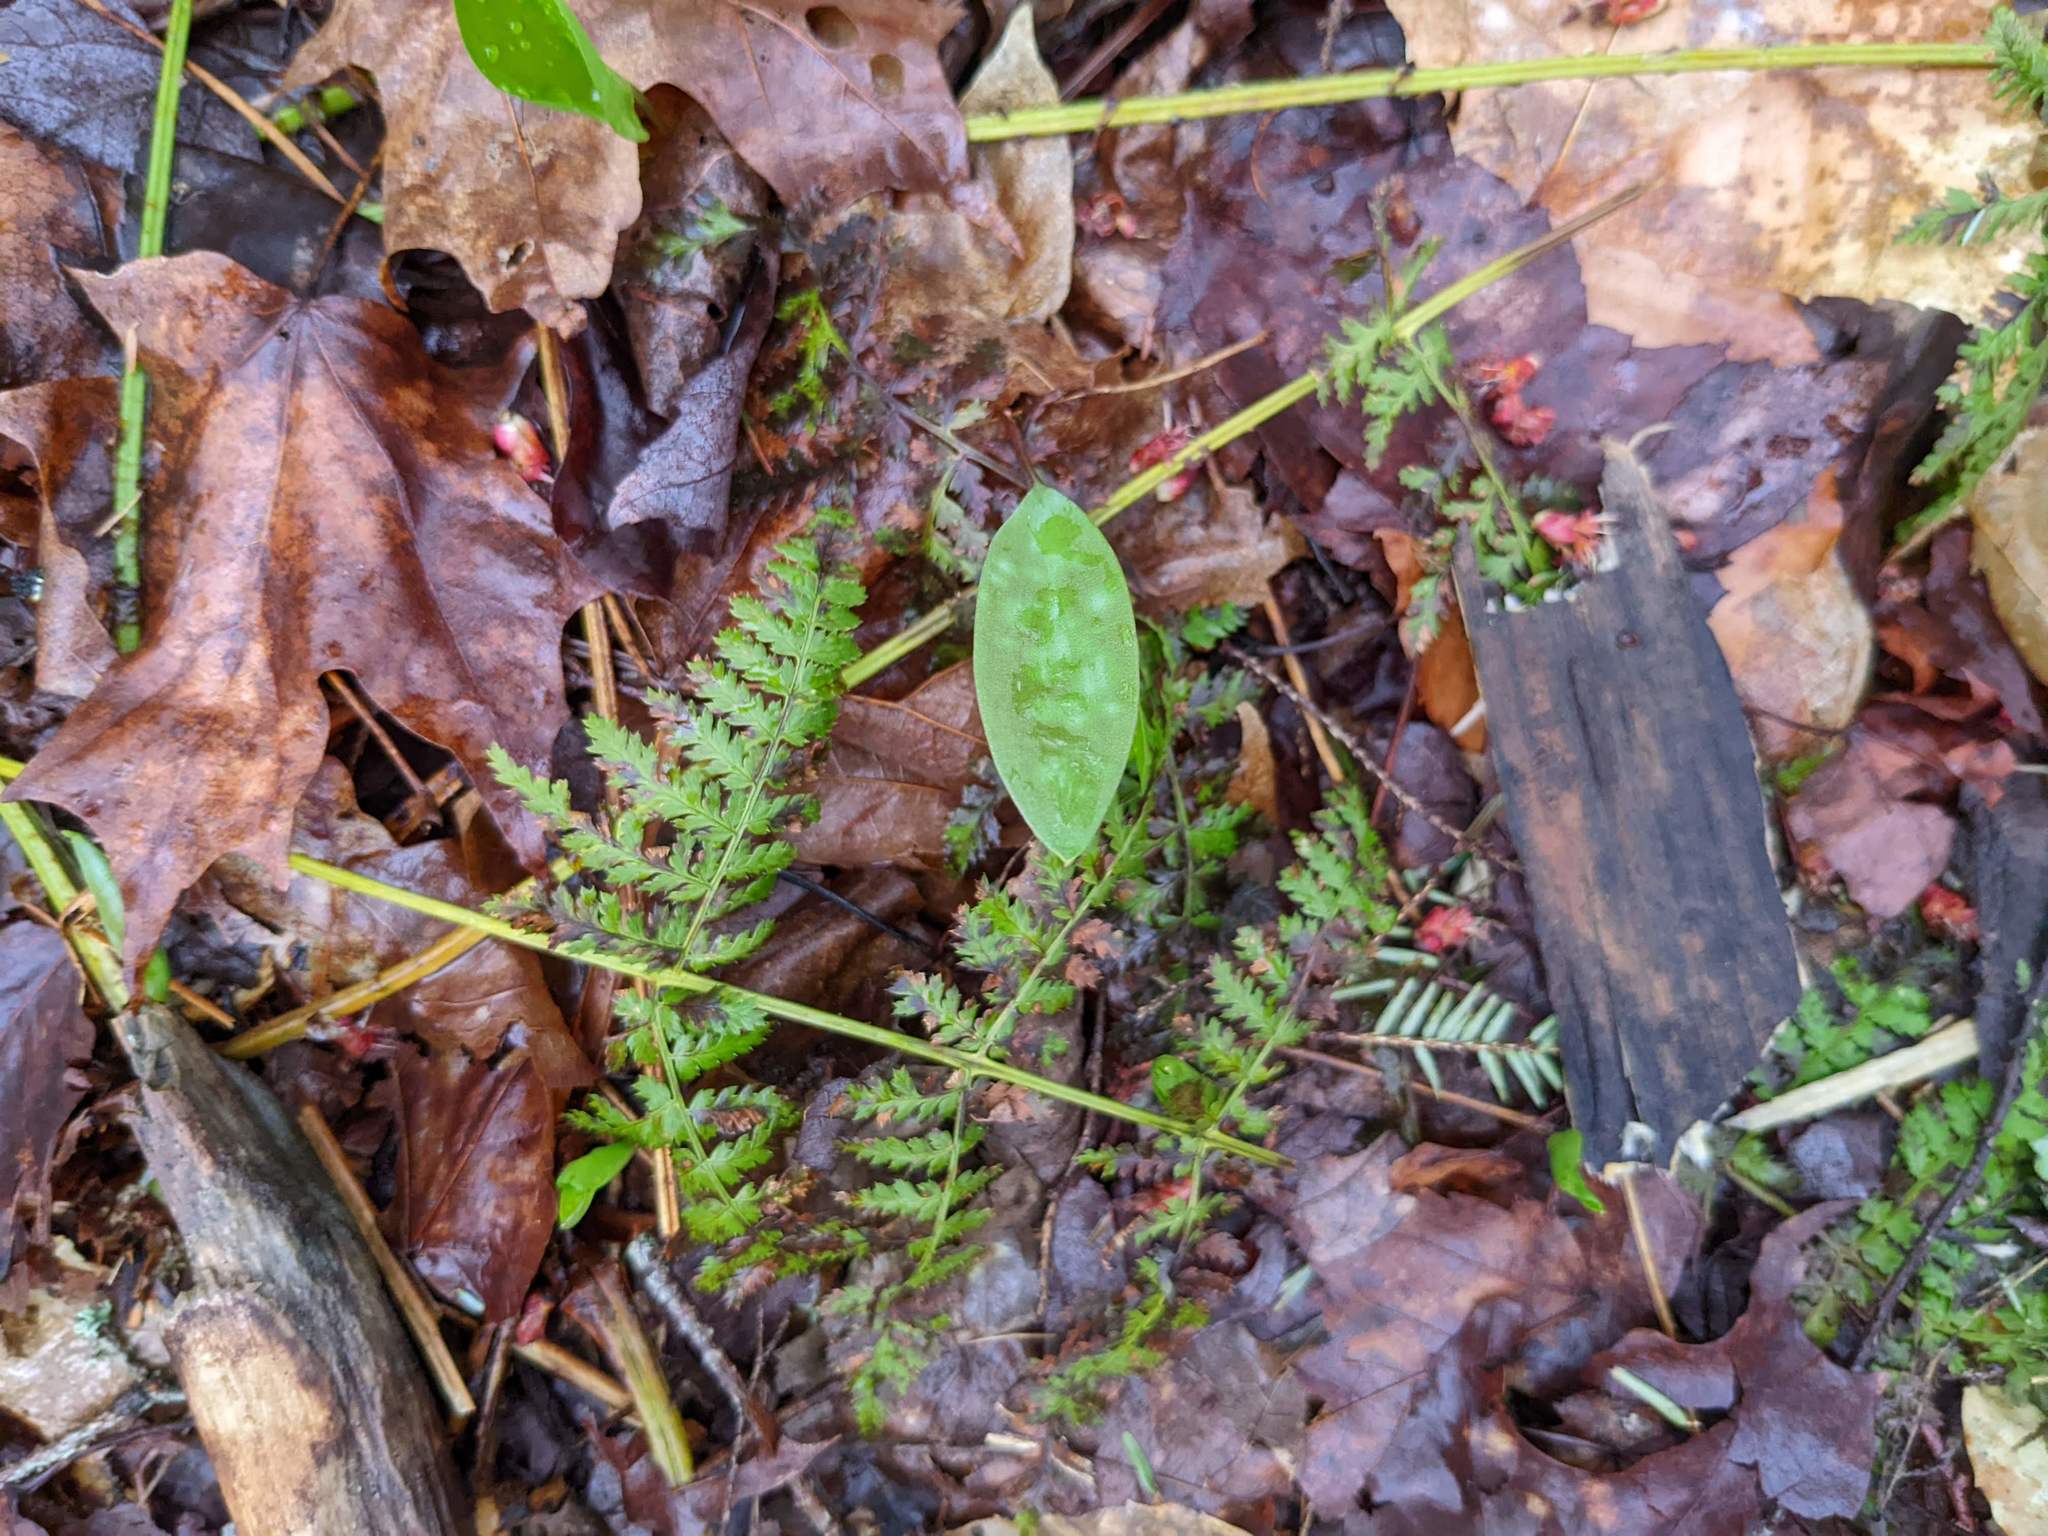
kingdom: Plantae
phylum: Tracheophyta
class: Liliopsida
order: Liliales
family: Liliaceae
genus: Erythronium
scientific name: Erythronium americanum
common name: Yellow adder's-tongue
